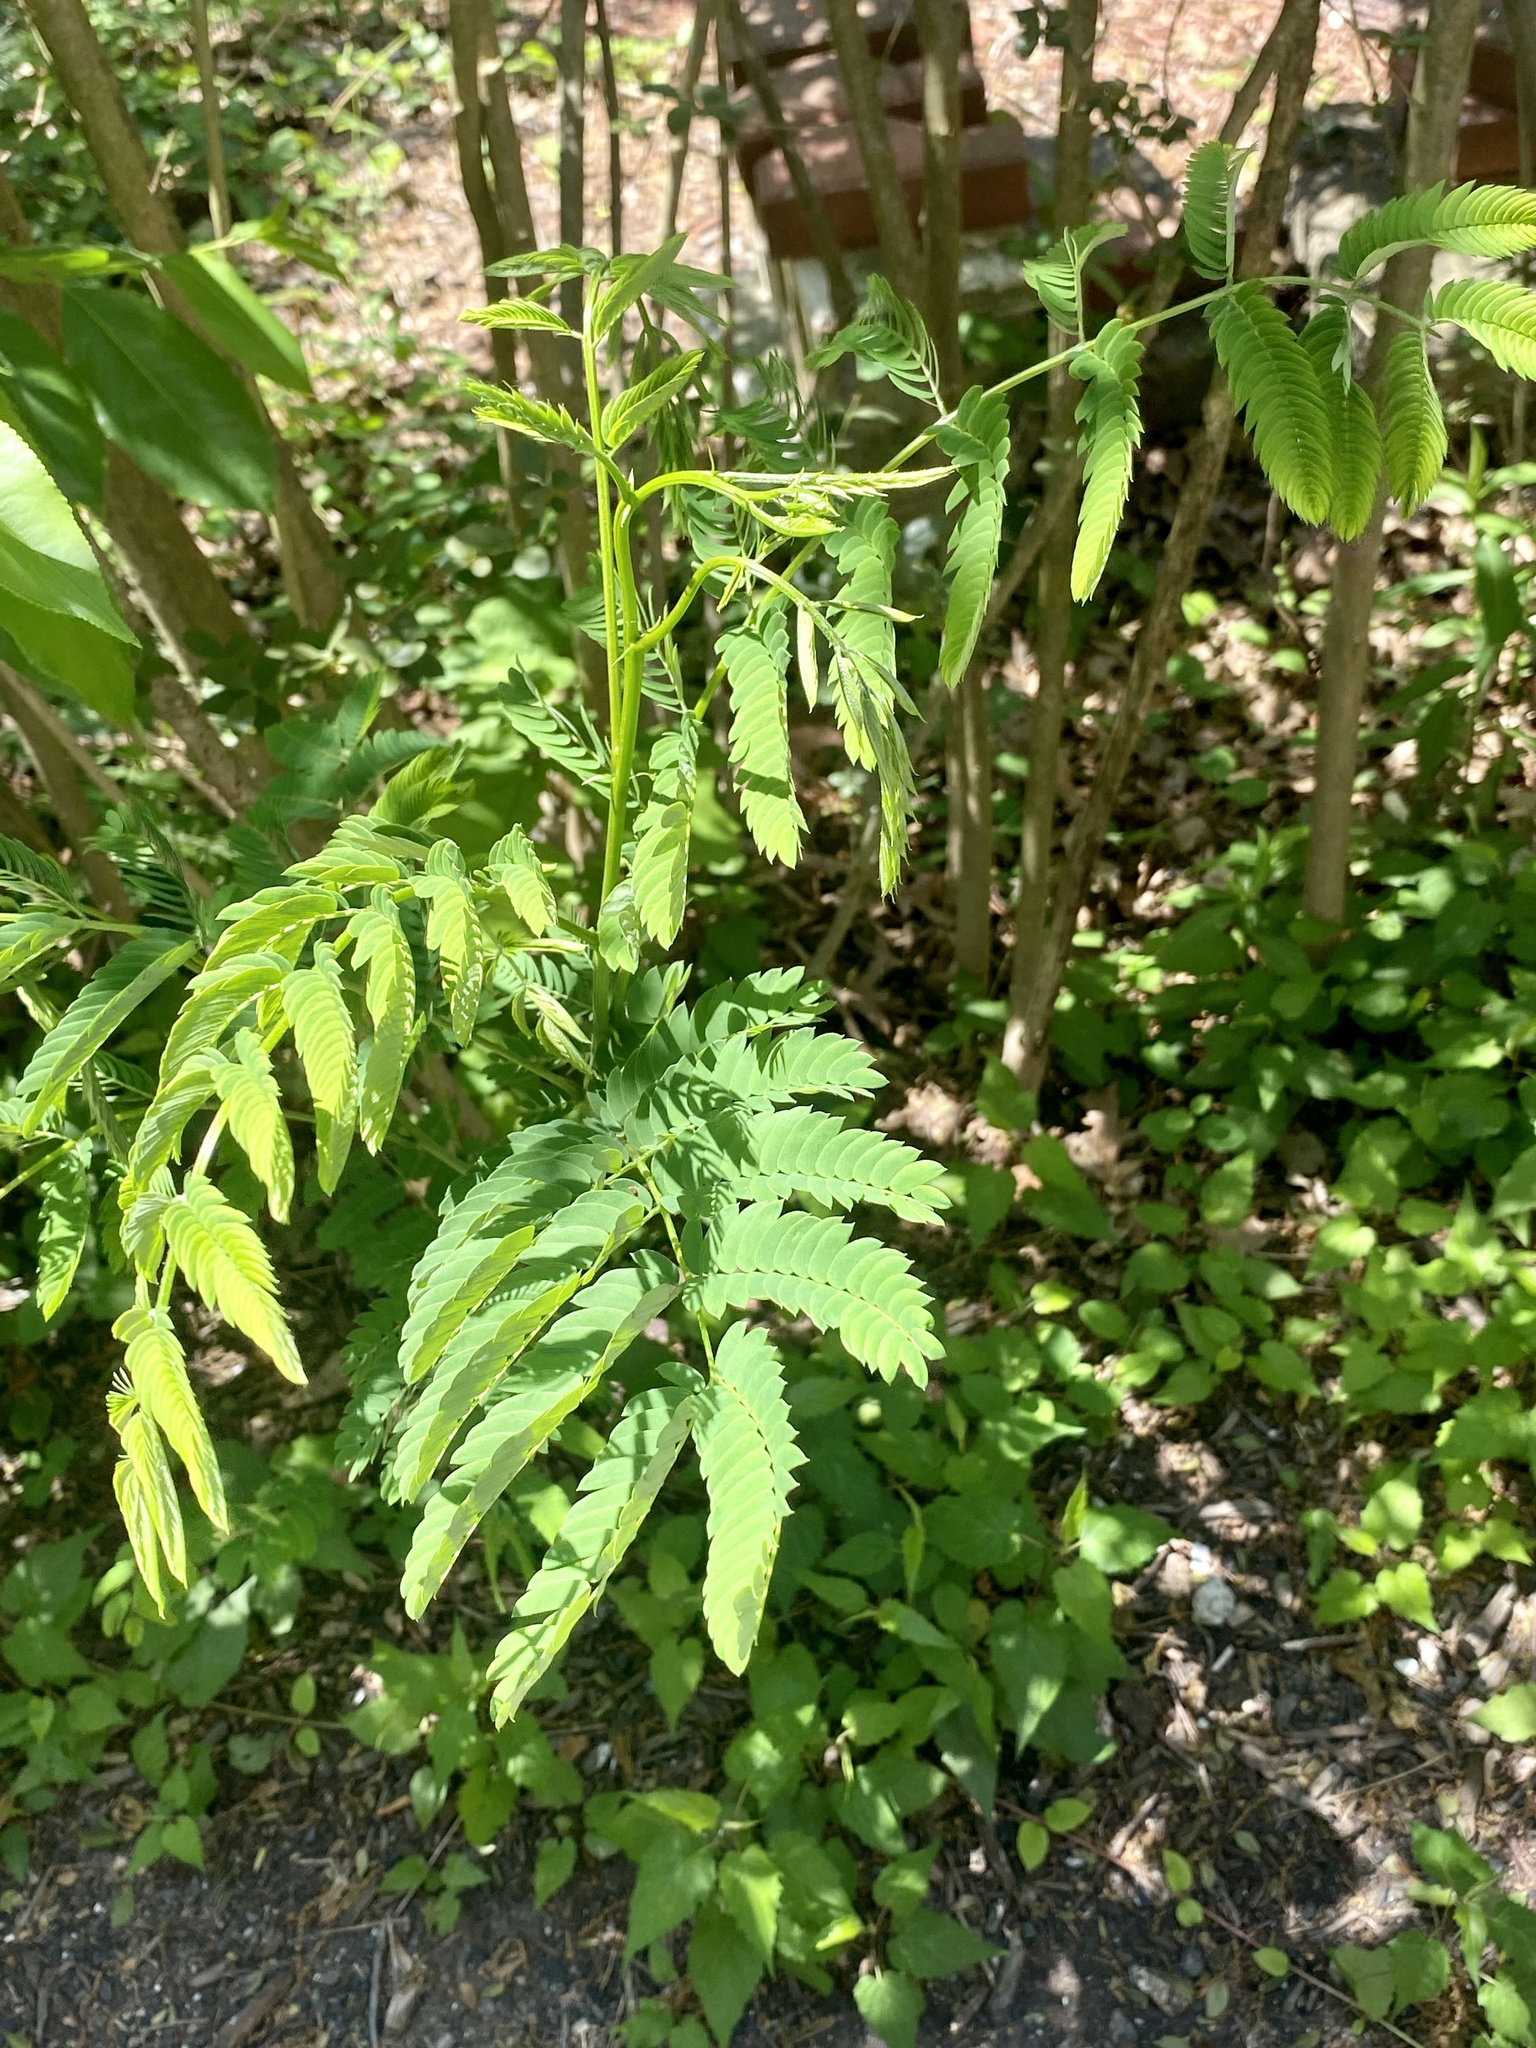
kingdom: Plantae
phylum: Tracheophyta
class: Magnoliopsida
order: Fabales
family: Fabaceae
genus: Albizia
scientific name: Albizia julibrissin
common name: Silktree
